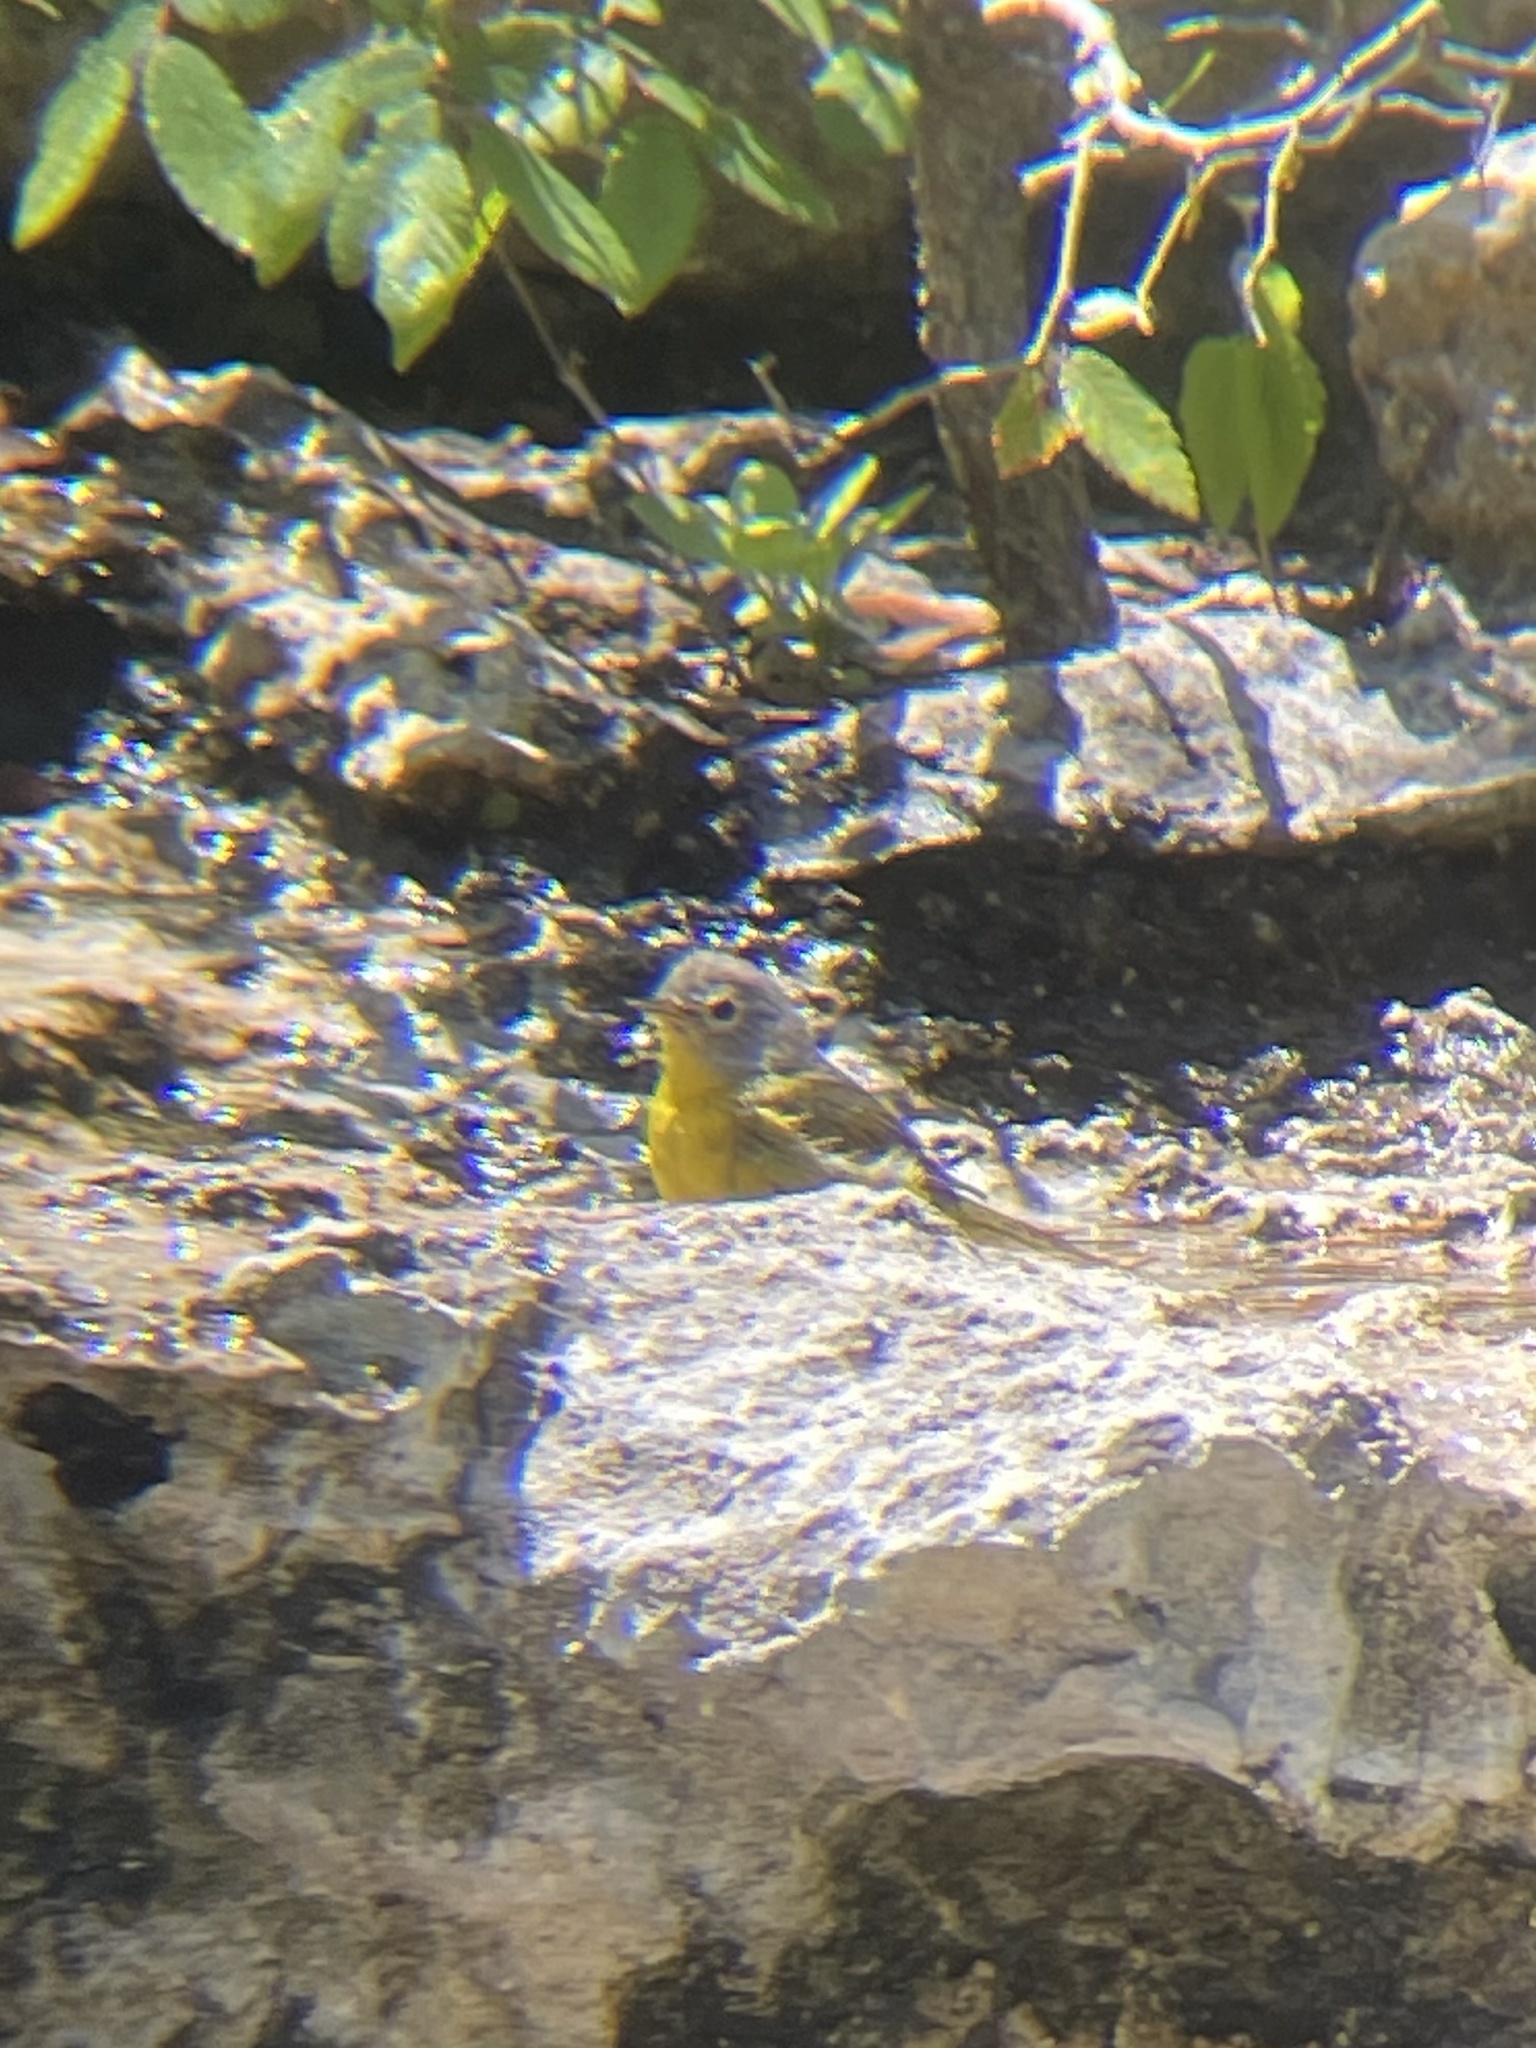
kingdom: Animalia
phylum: Chordata
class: Aves
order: Passeriformes
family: Parulidae
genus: Leiothlypis
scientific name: Leiothlypis ruficapilla
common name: Nashville warbler
